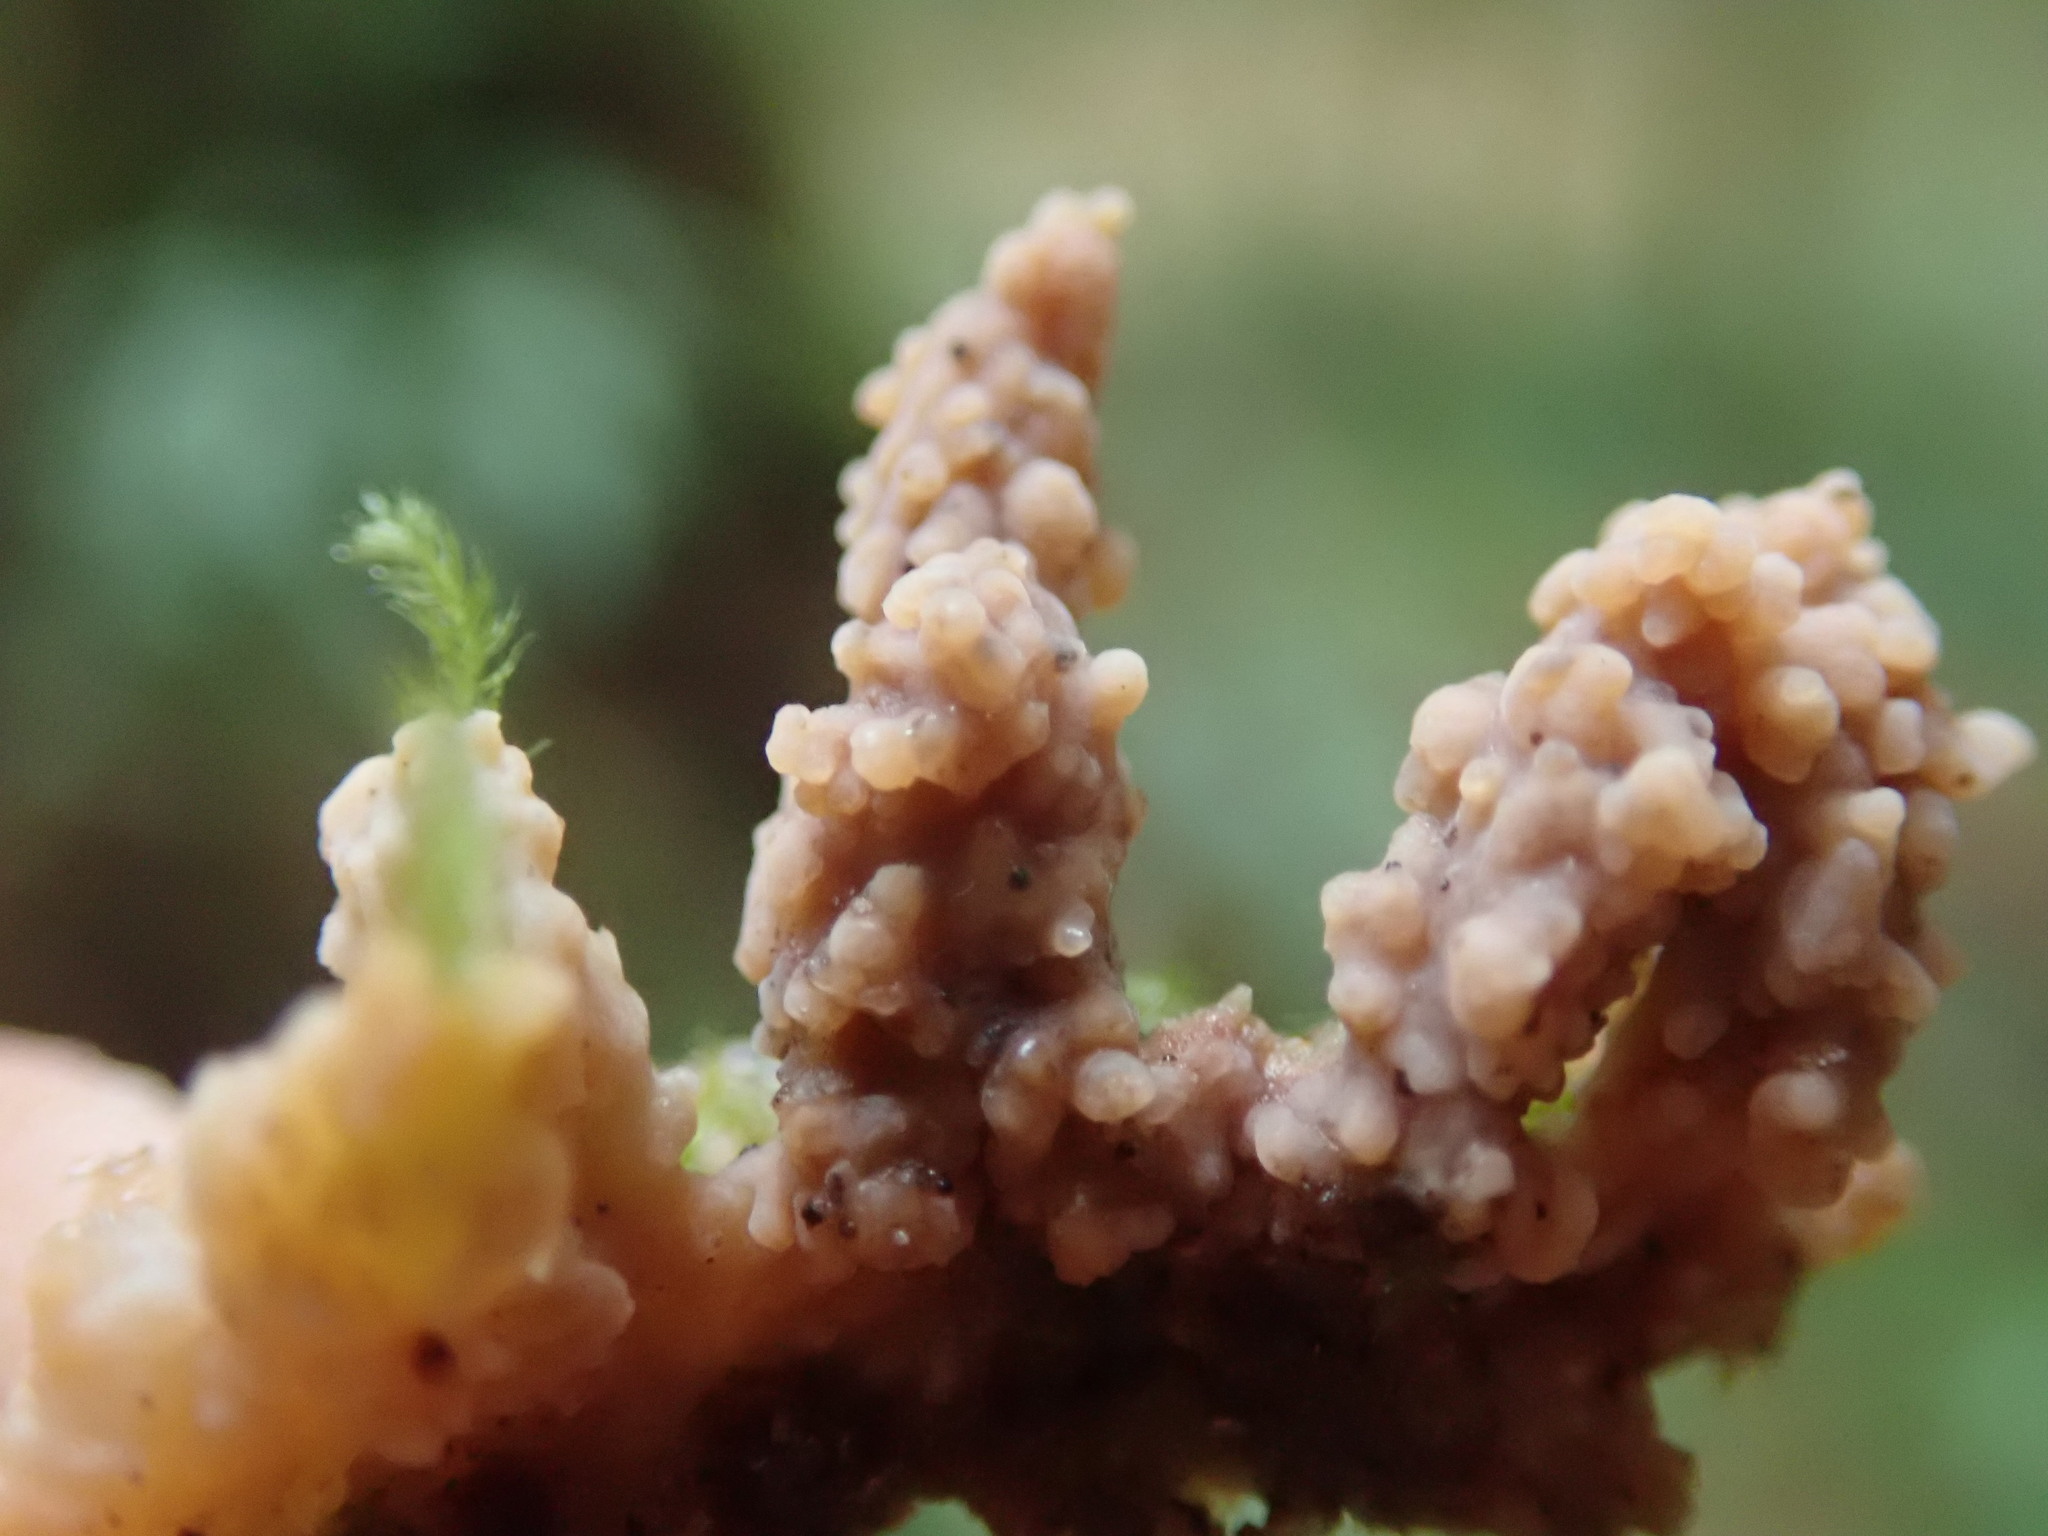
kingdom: Fungi
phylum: Basidiomycota
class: Agaricomycetes
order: Polyporales
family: Meruliaceae
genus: Phlebia
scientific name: Phlebia radiata
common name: Wrinkled crust
